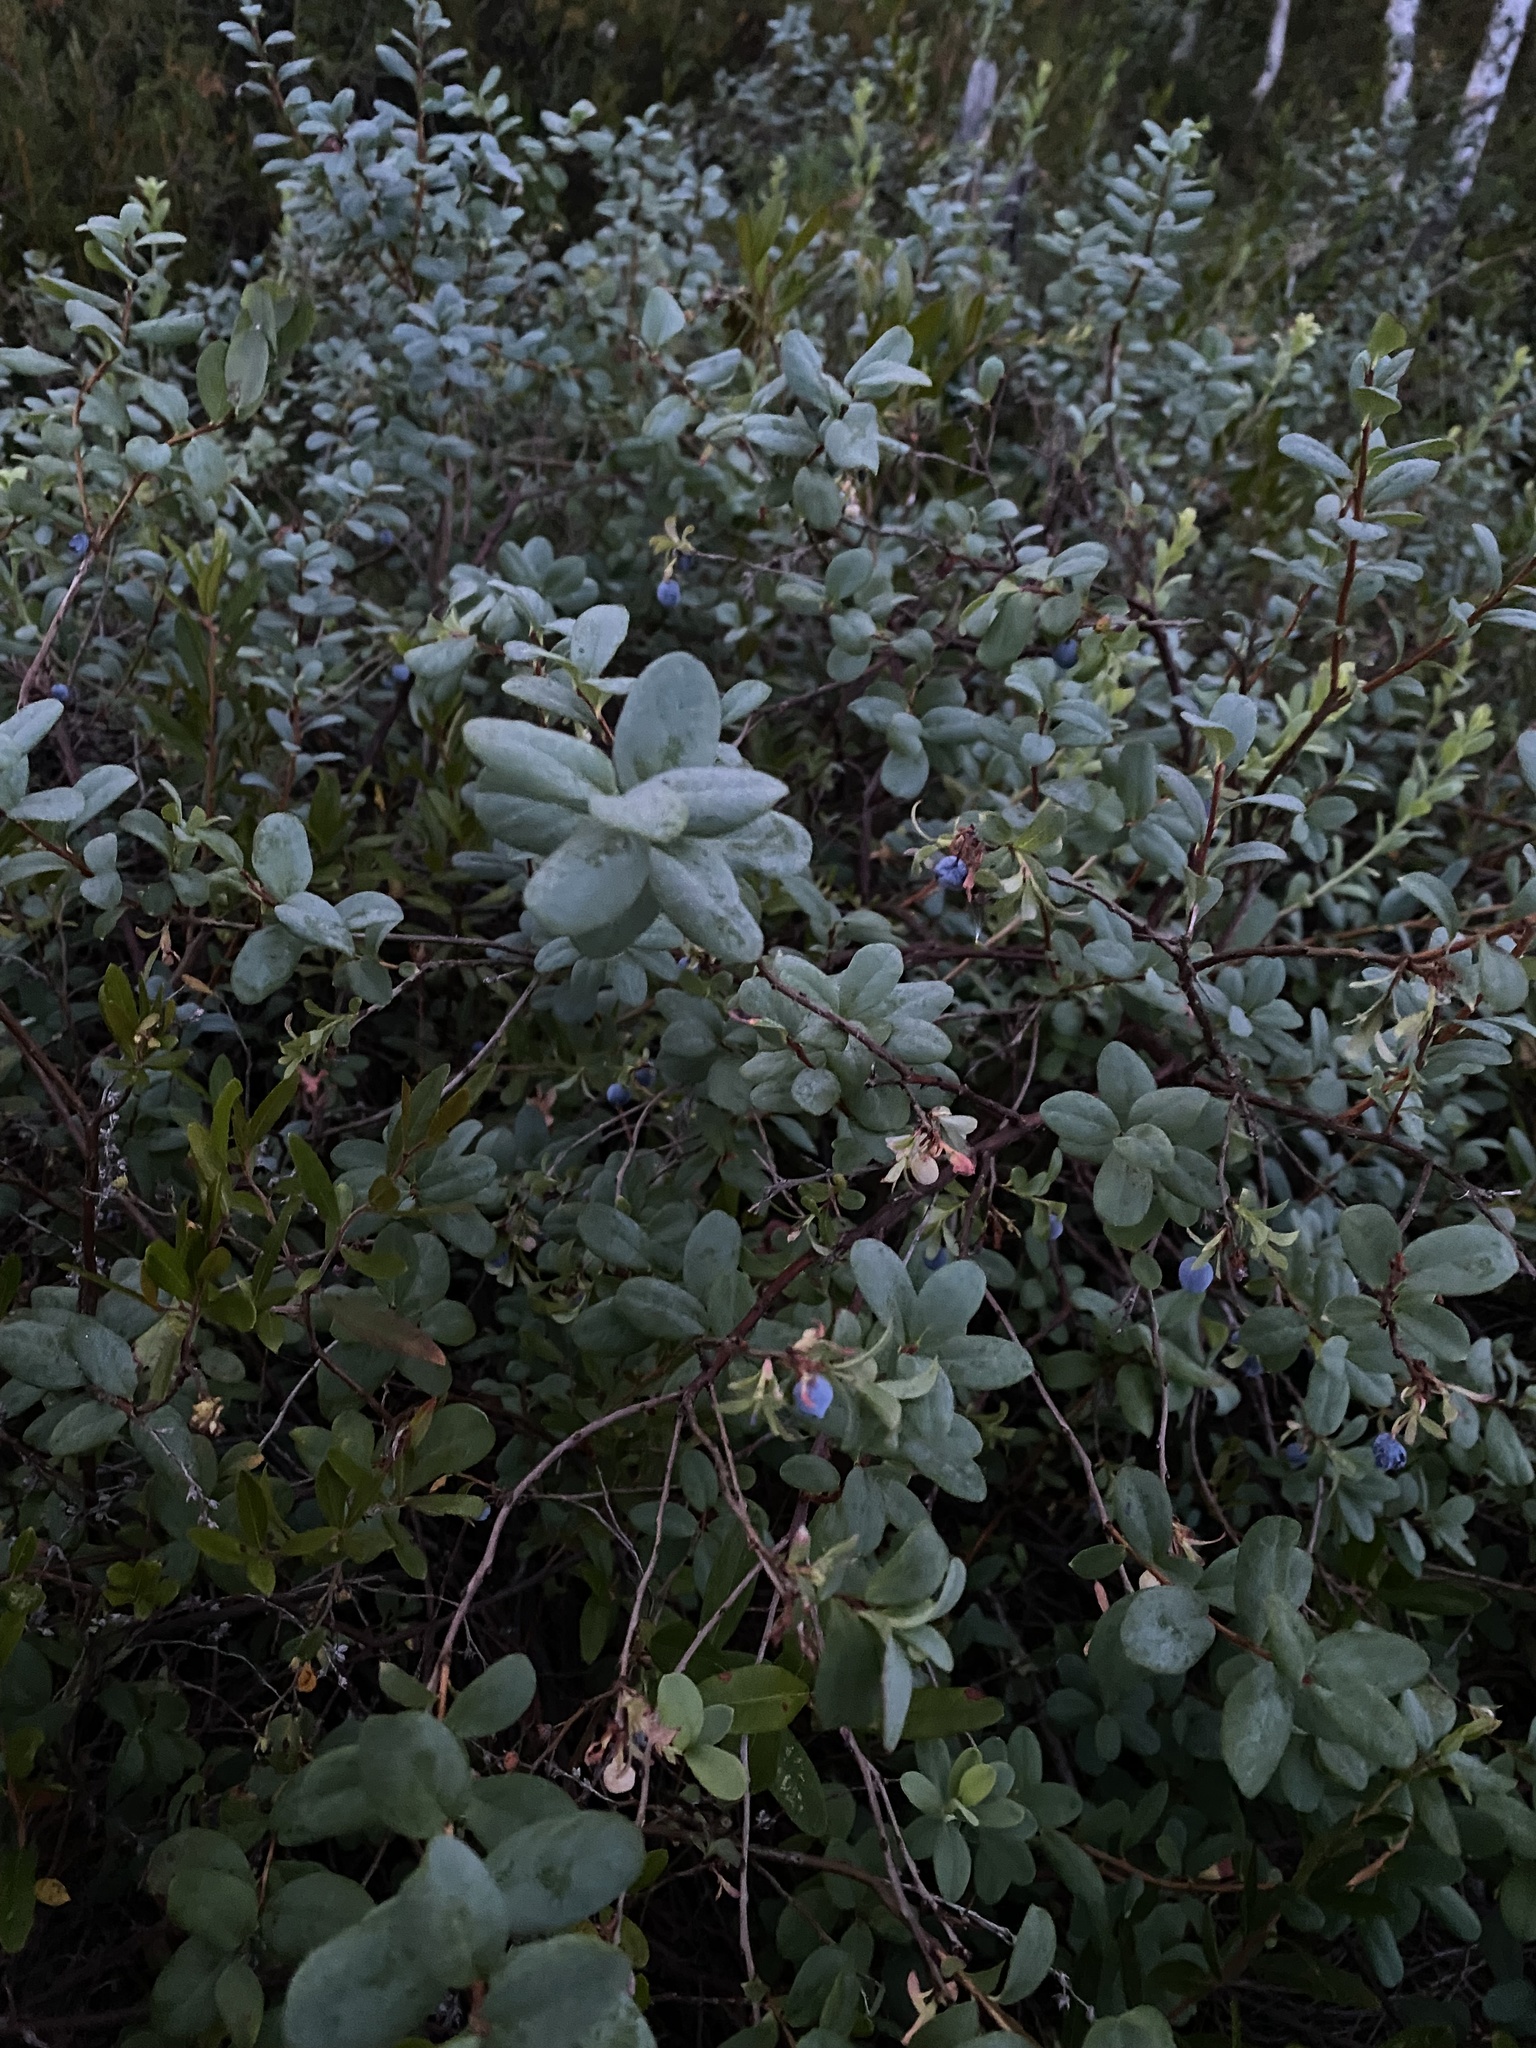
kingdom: Plantae
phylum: Tracheophyta
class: Magnoliopsida
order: Ericales
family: Ericaceae
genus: Vaccinium
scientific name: Vaccinium uliginosum
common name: Bog bilberry
